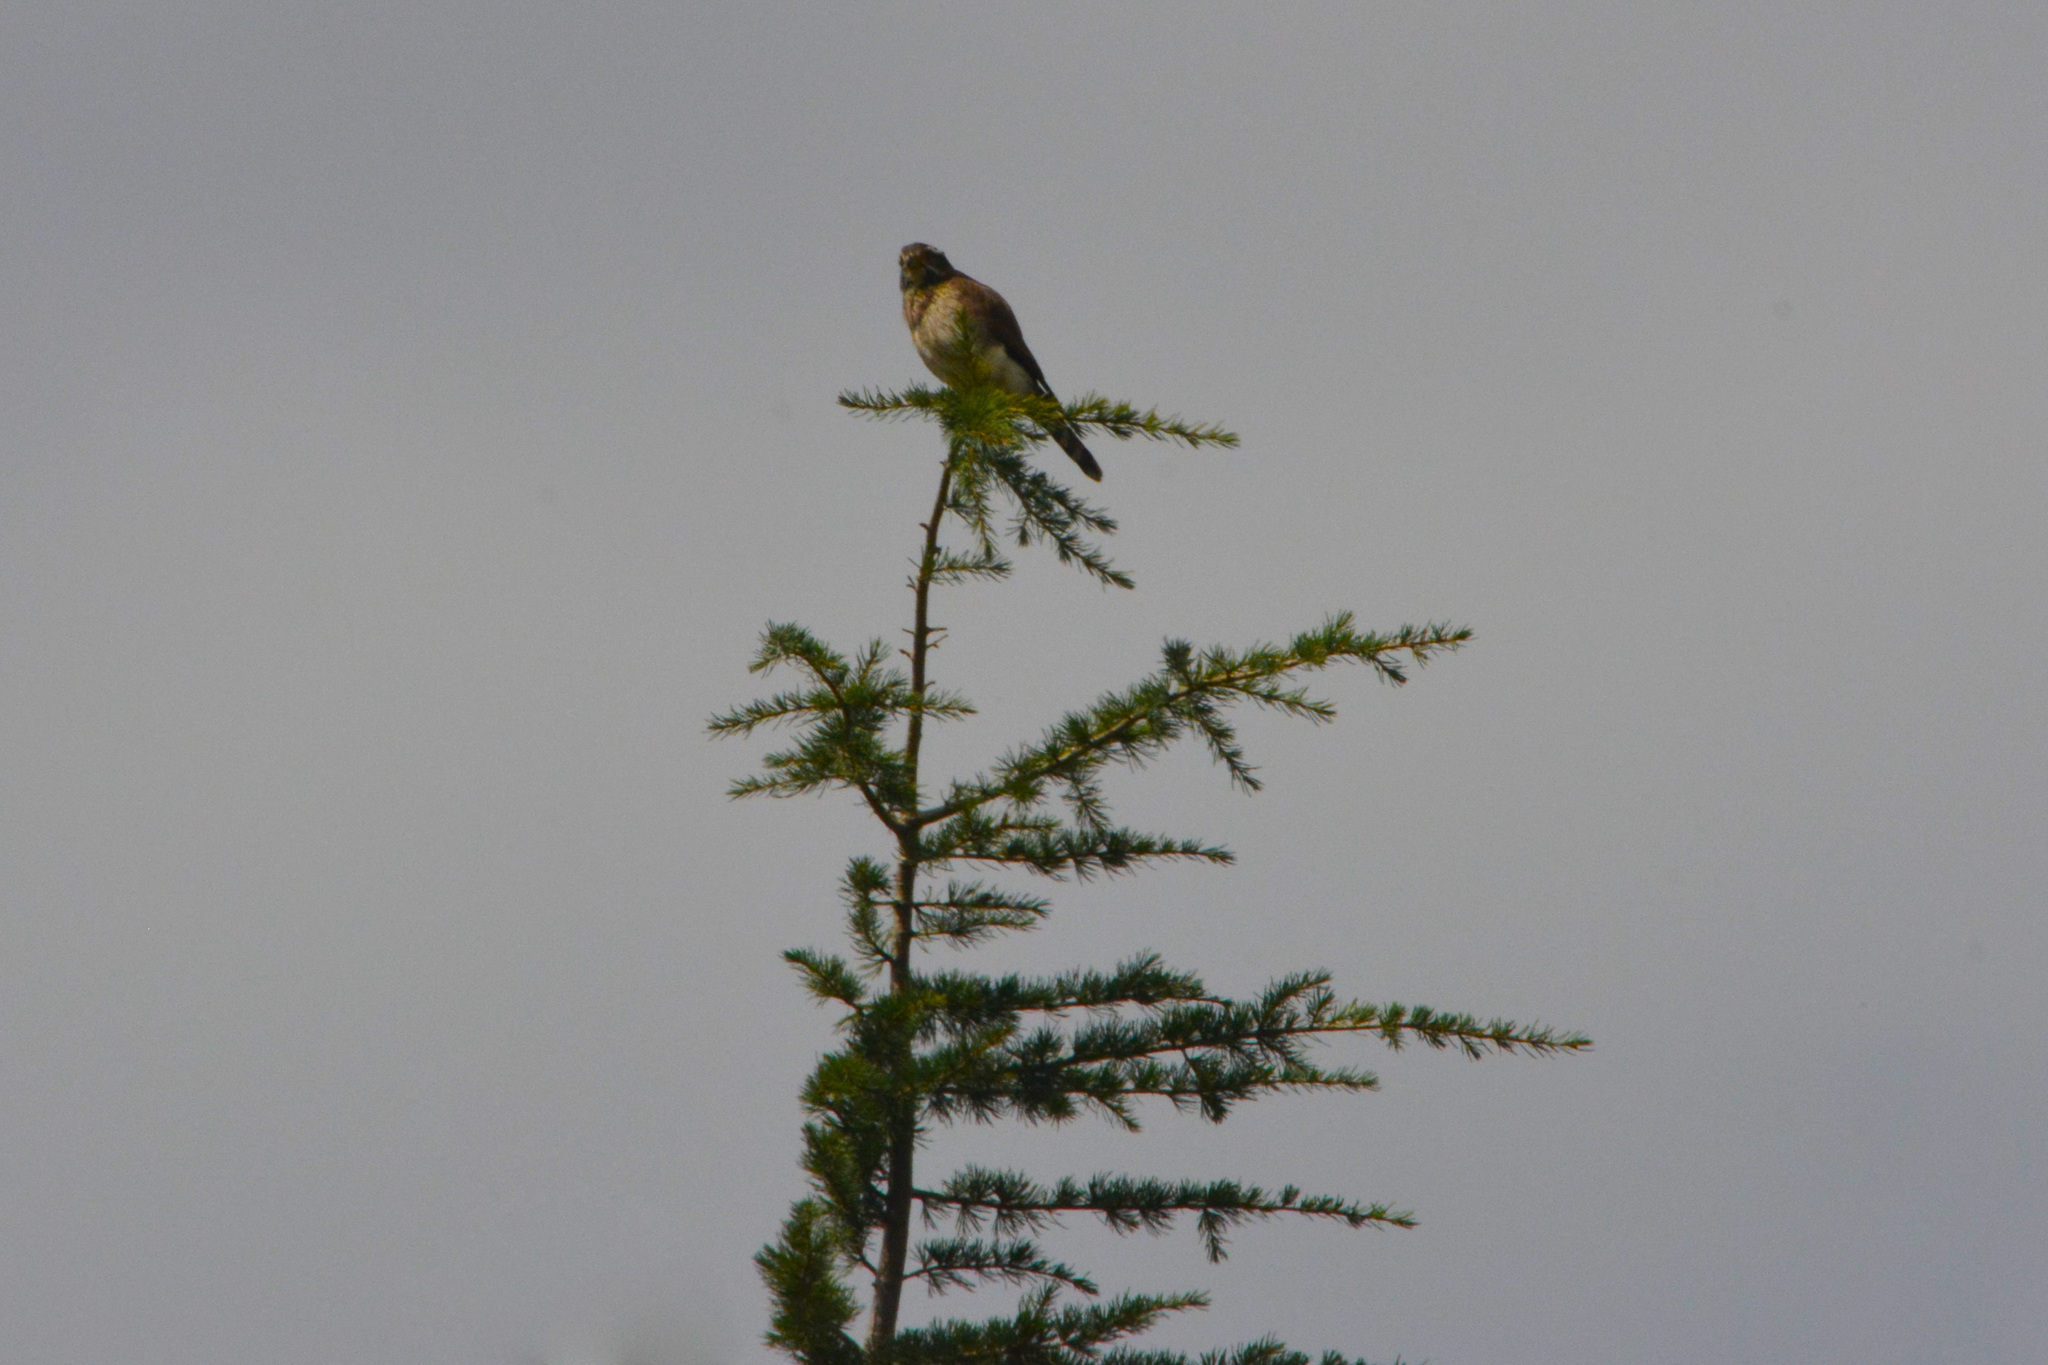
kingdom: Animalia
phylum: Chordata
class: Aves
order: Falconiformes
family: Falconidae
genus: Spiziapteryx
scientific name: Spiziapteryx circumcincta
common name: Spot-winged falconet
